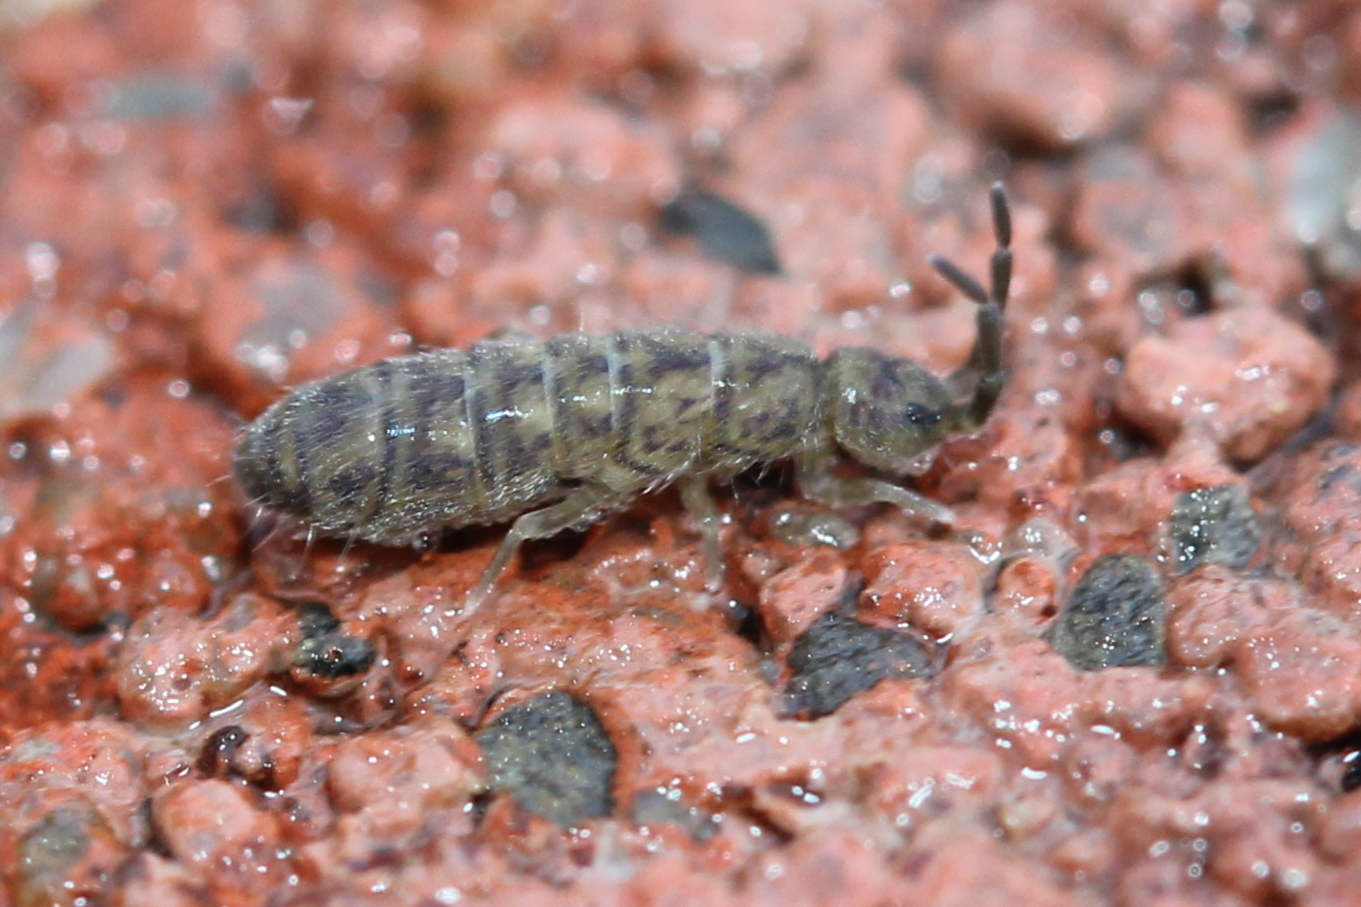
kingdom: Animalia
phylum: Arthropoda
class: Collembola
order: Entomobryomorpha
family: Isotomidae
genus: Isotoma
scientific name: Isotoma delta
